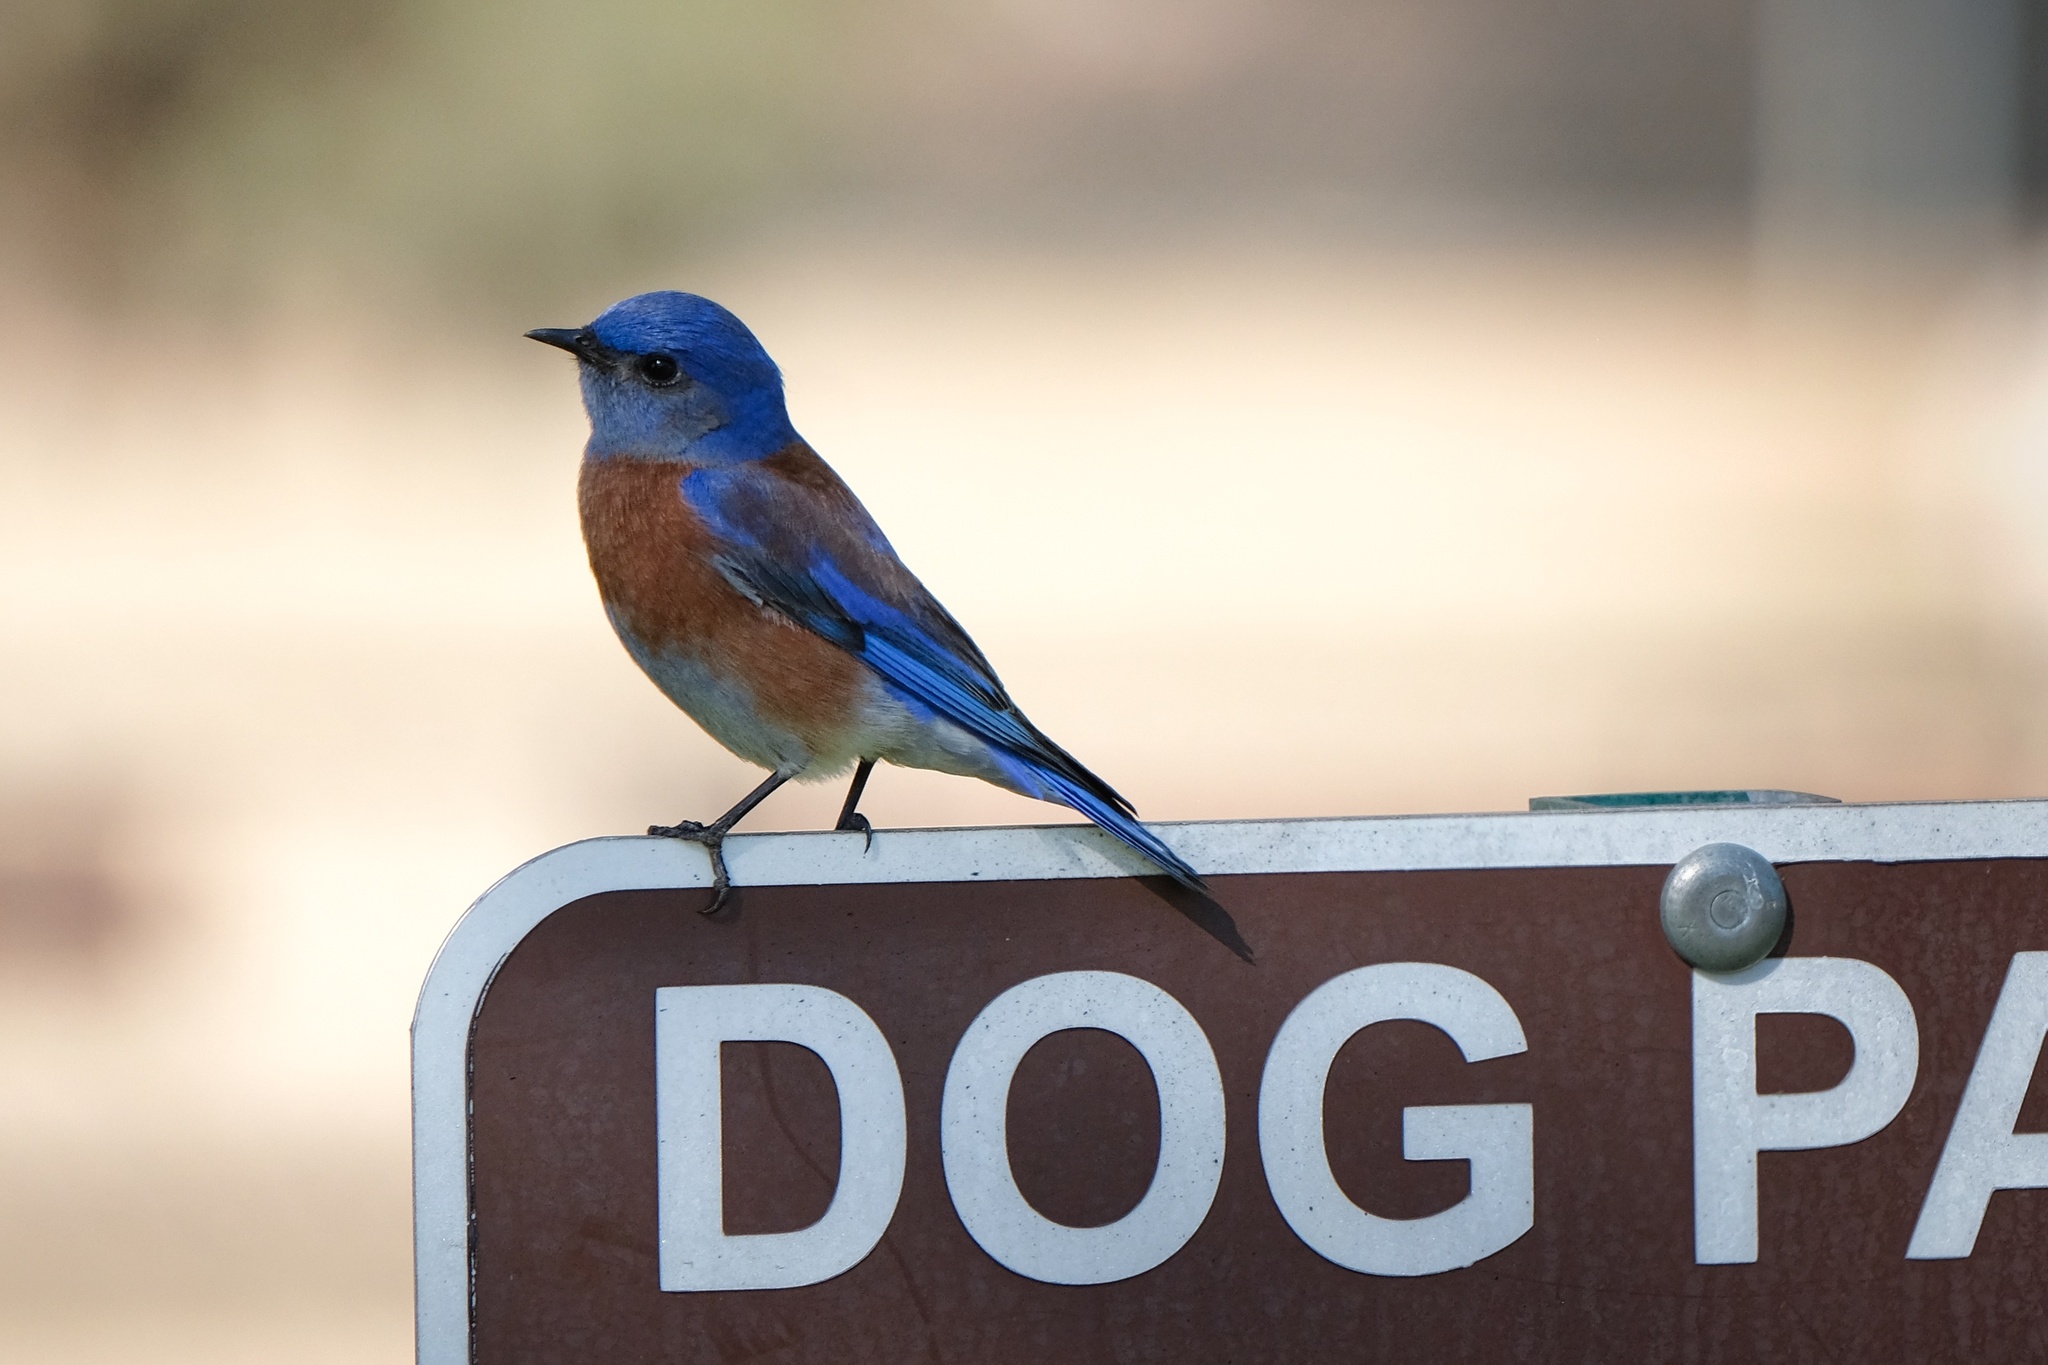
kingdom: Animalia
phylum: Chordata
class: Aves
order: Passeriformes
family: Turdidae
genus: Sialia
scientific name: Sialia mexicana
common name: Western bluebird
